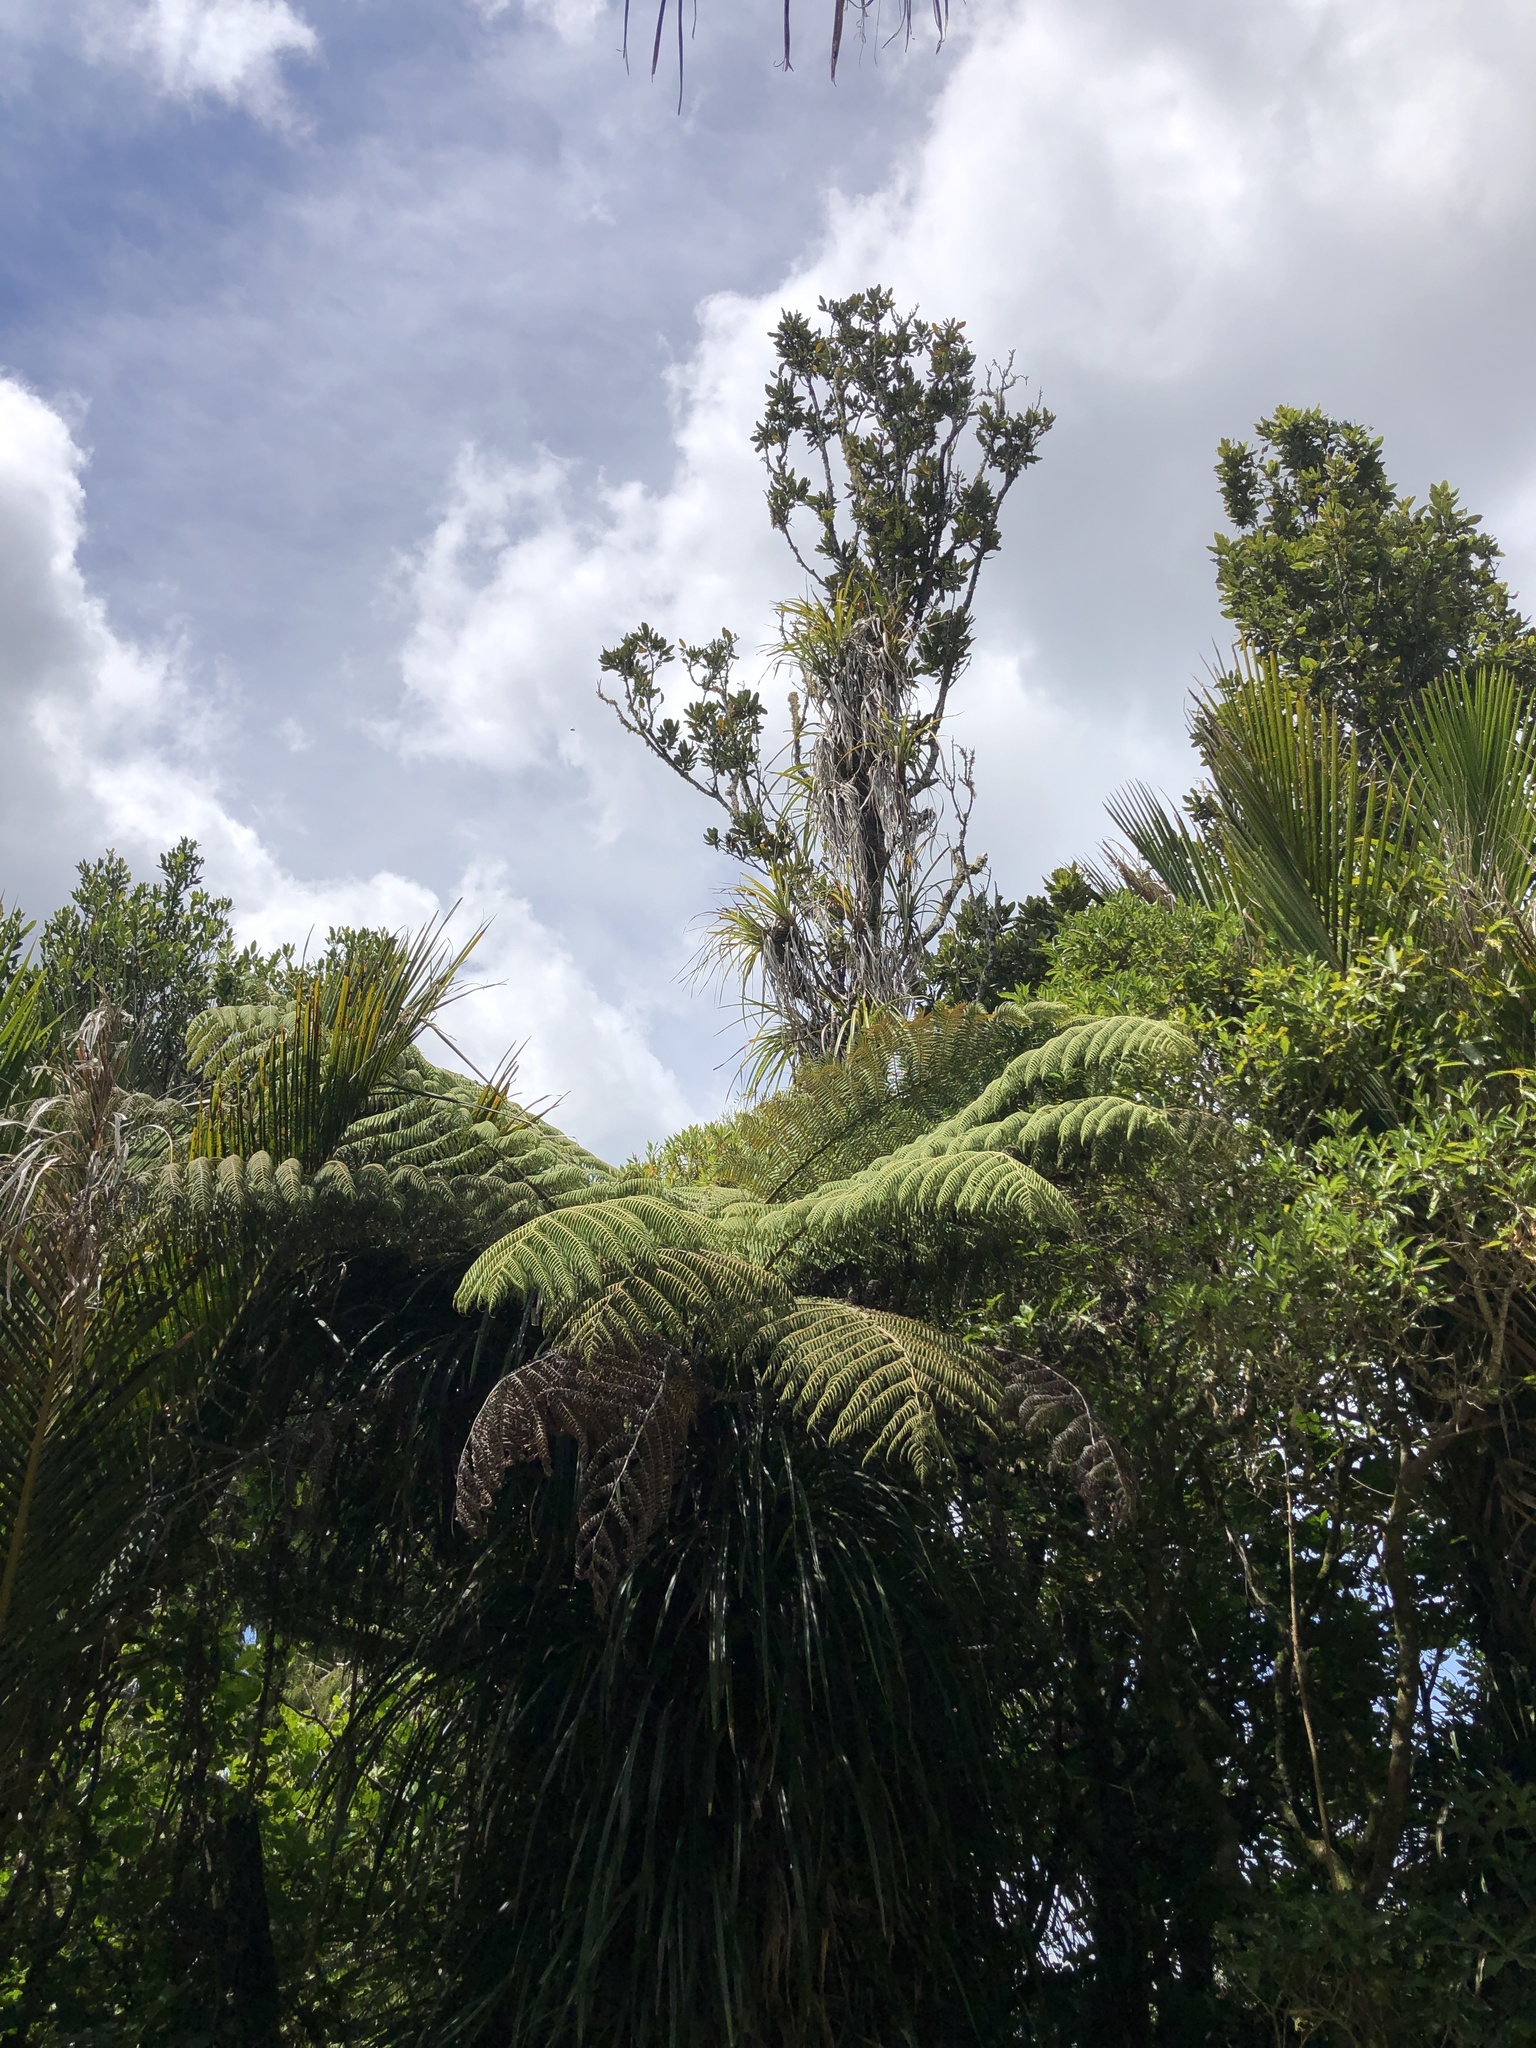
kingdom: Plantae
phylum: Tracheophyta
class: Magnoliopsida
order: Proteales
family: Proteaceae
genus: Knightia
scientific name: Knightia excelsa
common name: New zealand-honeysuckle
